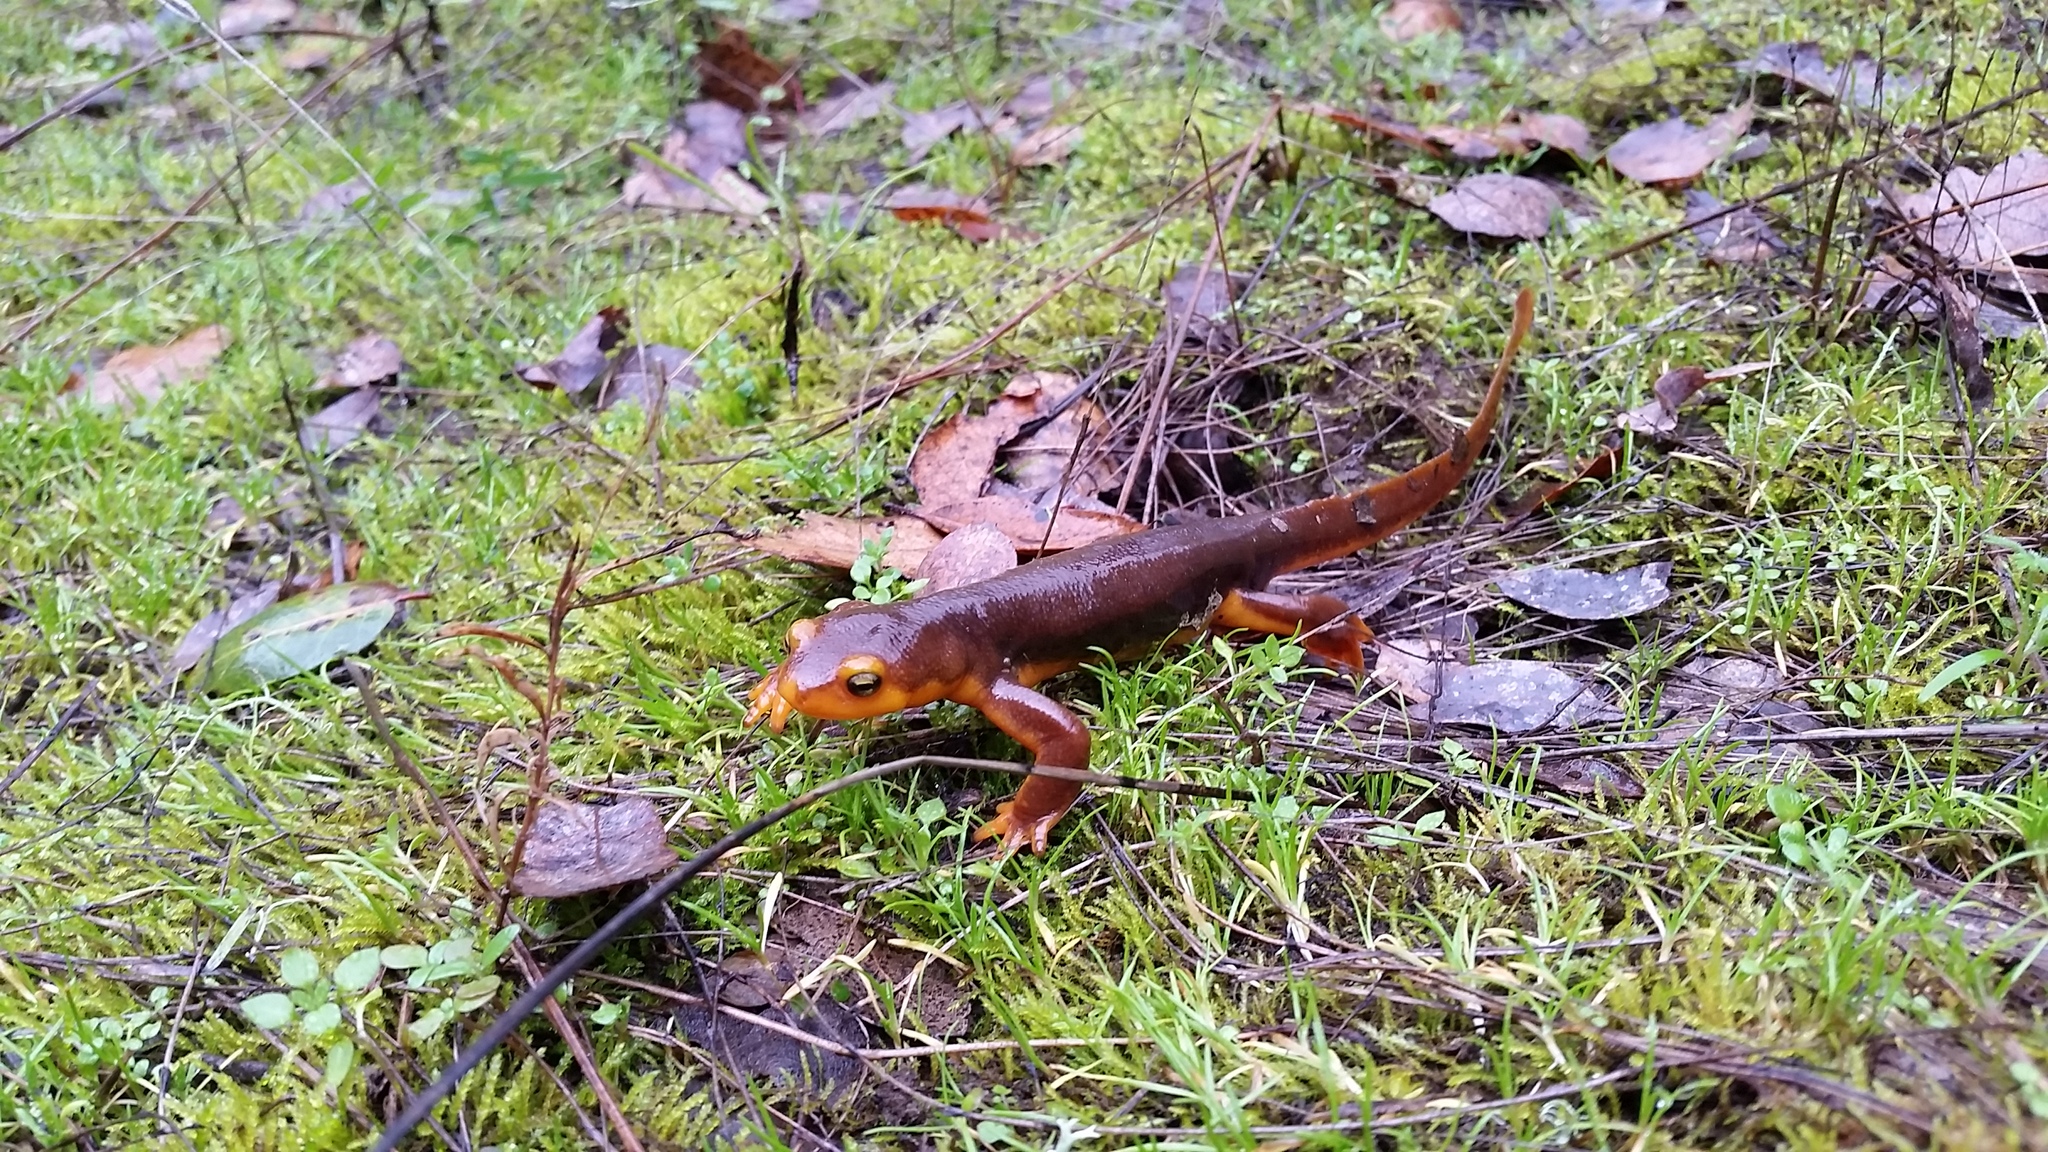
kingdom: Animalia
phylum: Chordata
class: Amphibia
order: Caudata
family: Salamandridae
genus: Taricha
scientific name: Taricha torosa
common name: California newt
